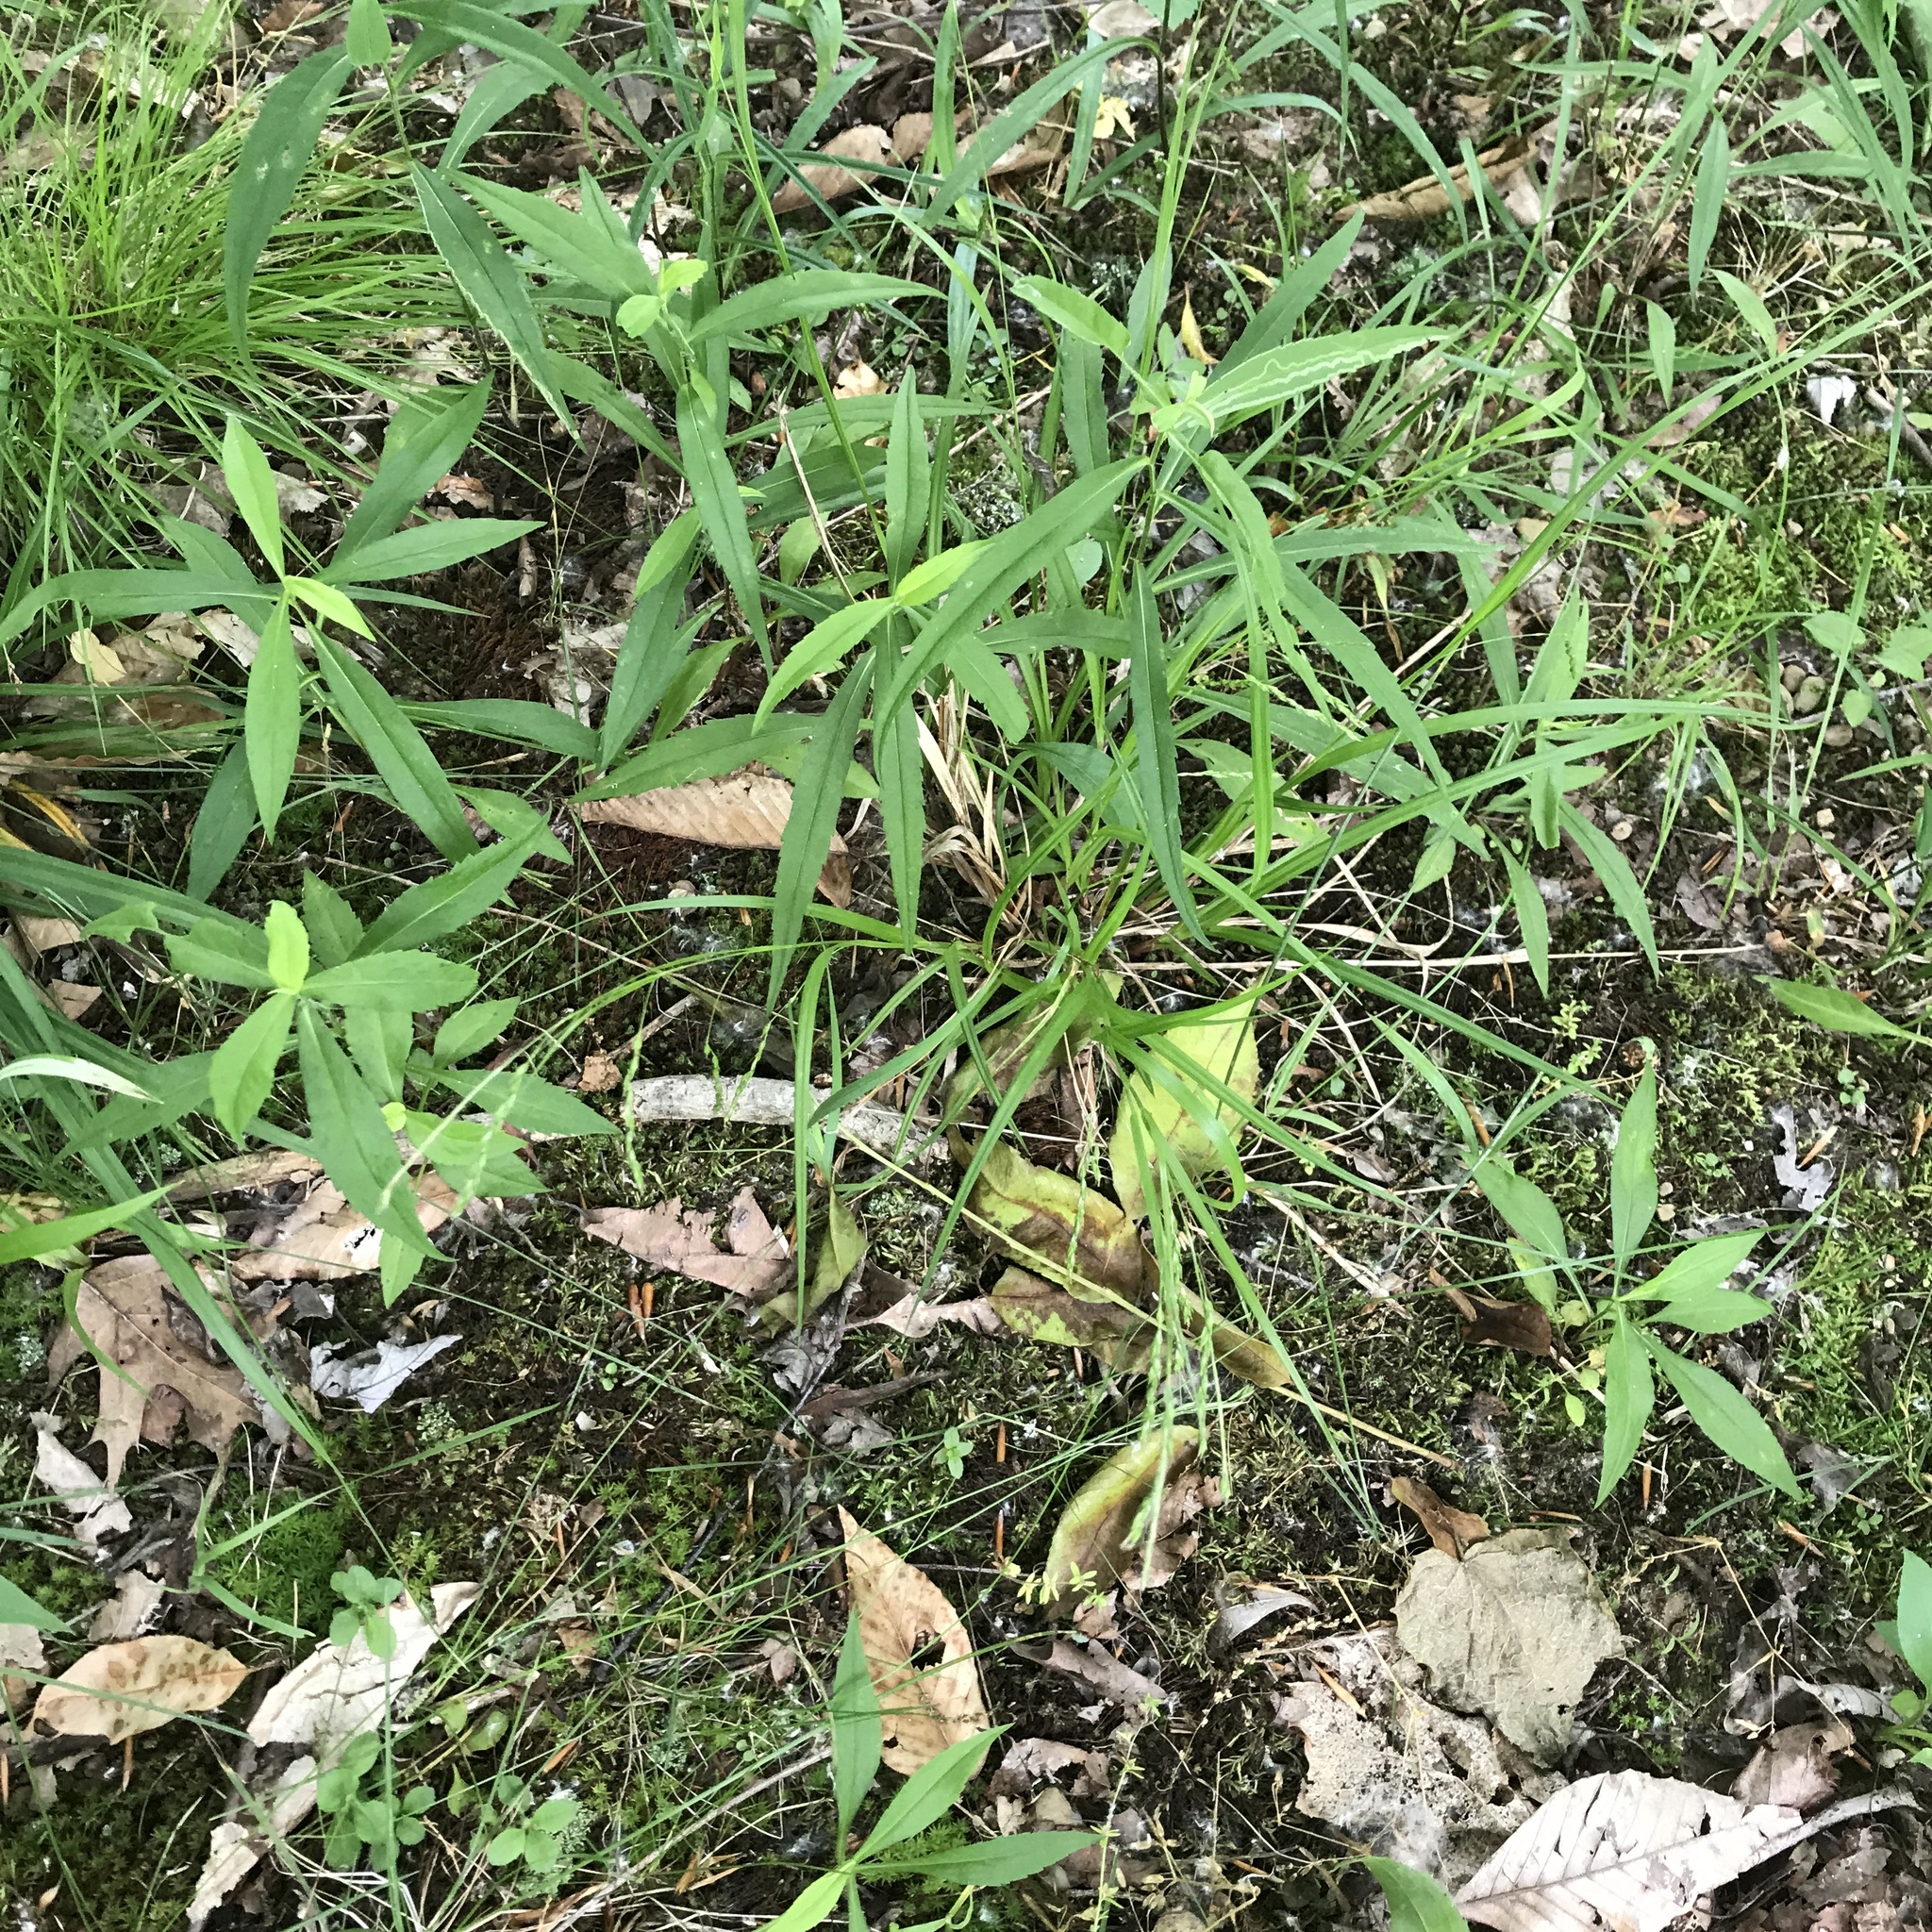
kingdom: Plantae
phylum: Tracheophyta
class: Liliopsida
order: Poales
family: Cyperaceae
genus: Carex
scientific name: Carex debilis
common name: White-edge sedge
